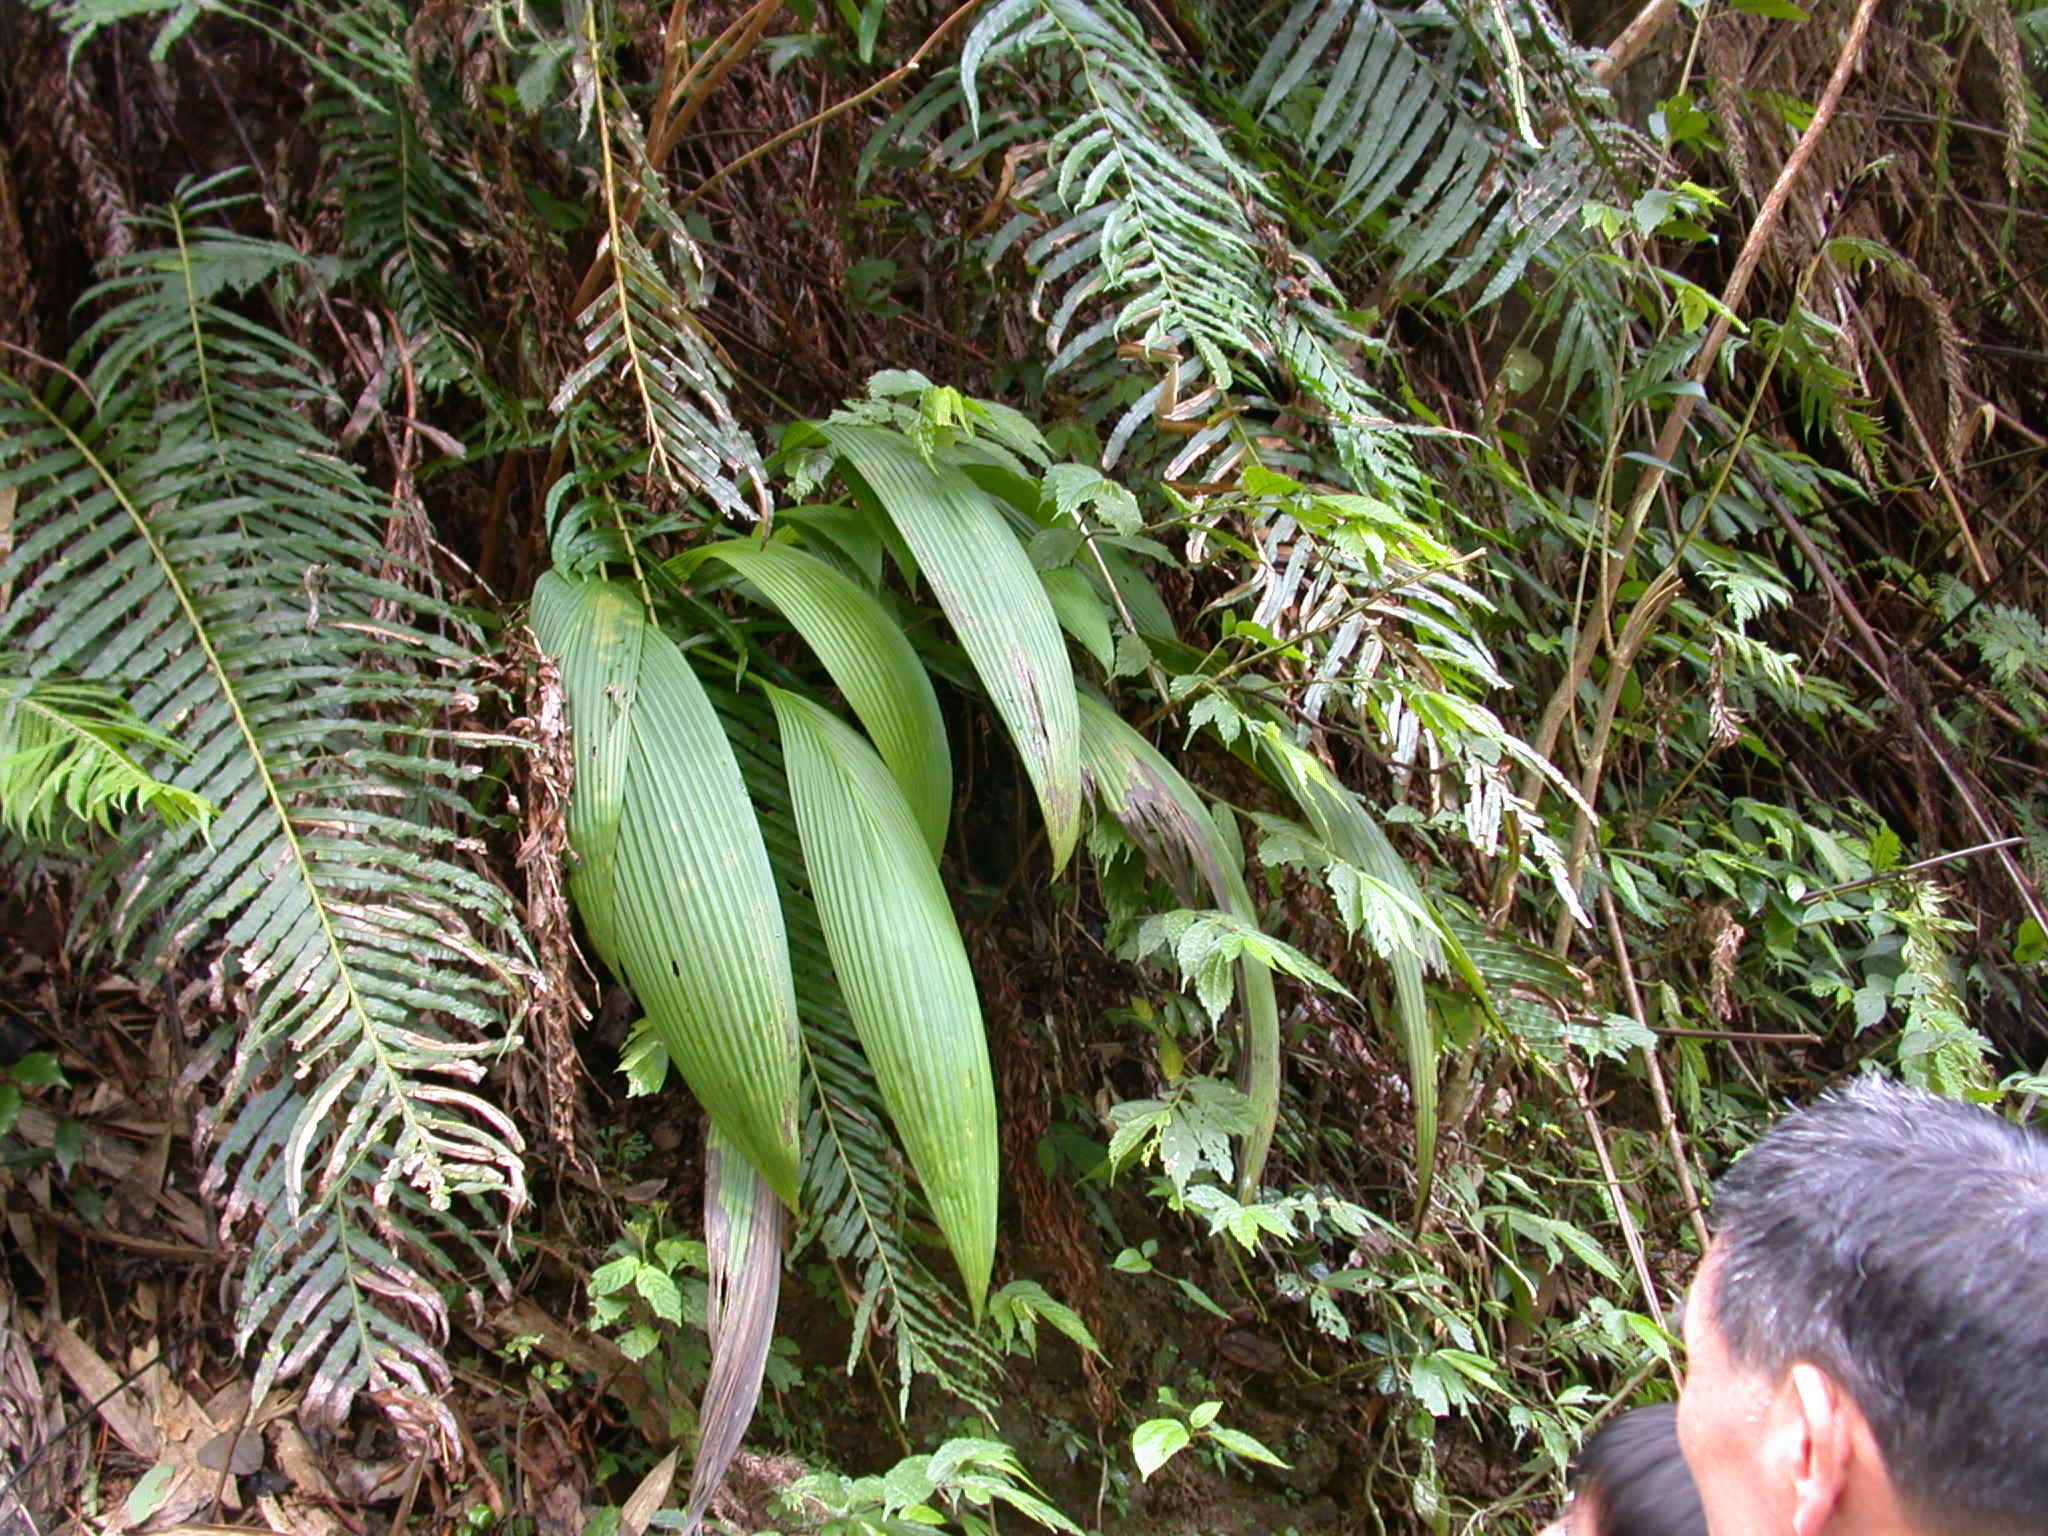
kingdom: Plantae
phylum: Tracheophyta
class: Liliopsida
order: Asparagales
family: Hypoxidaceae
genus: Curculigo
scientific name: Curculigo capitulata
